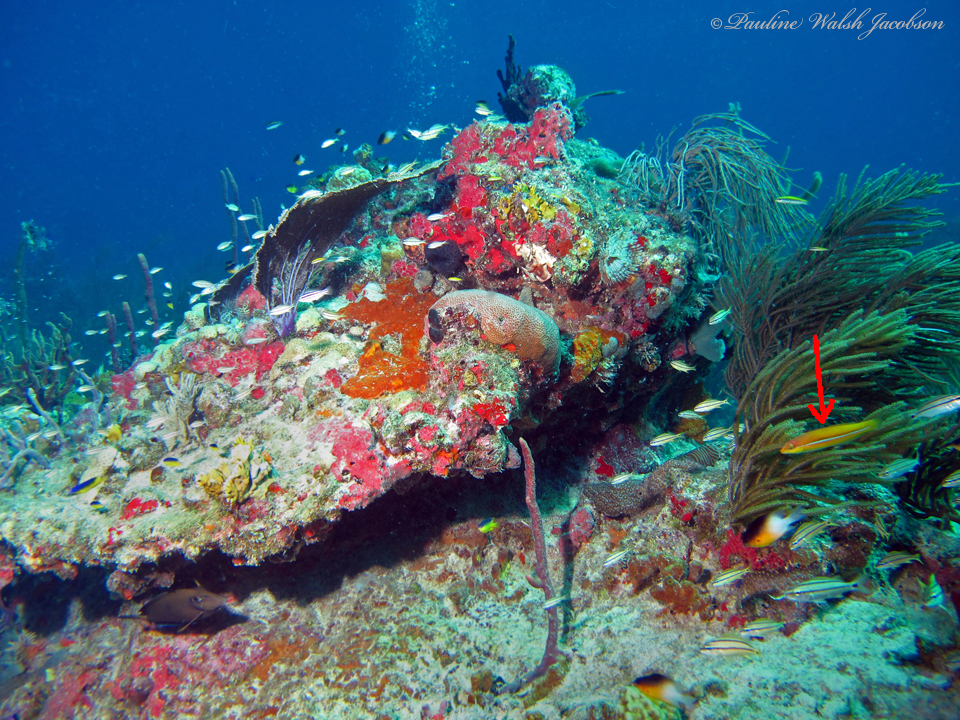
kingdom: Animalia
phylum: Chordata
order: Perciformes
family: Labridae
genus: Halichoeres
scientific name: Halichoeres garnoti
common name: Yellowhead wrasse
